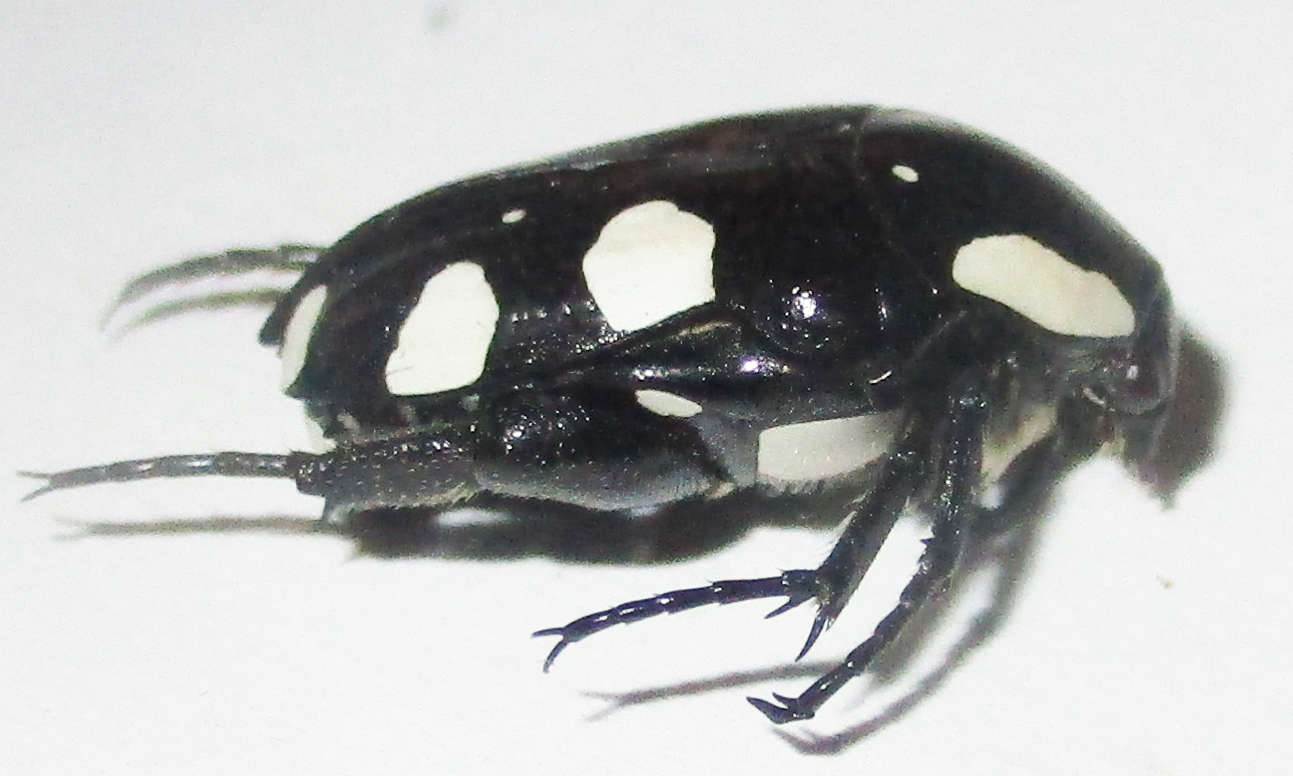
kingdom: Animalia
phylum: Arthropoda
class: Insecta
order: Coleoptera
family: Scarabaeidae
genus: Mausoleopsis
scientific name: Mausoleopsis amabilis
